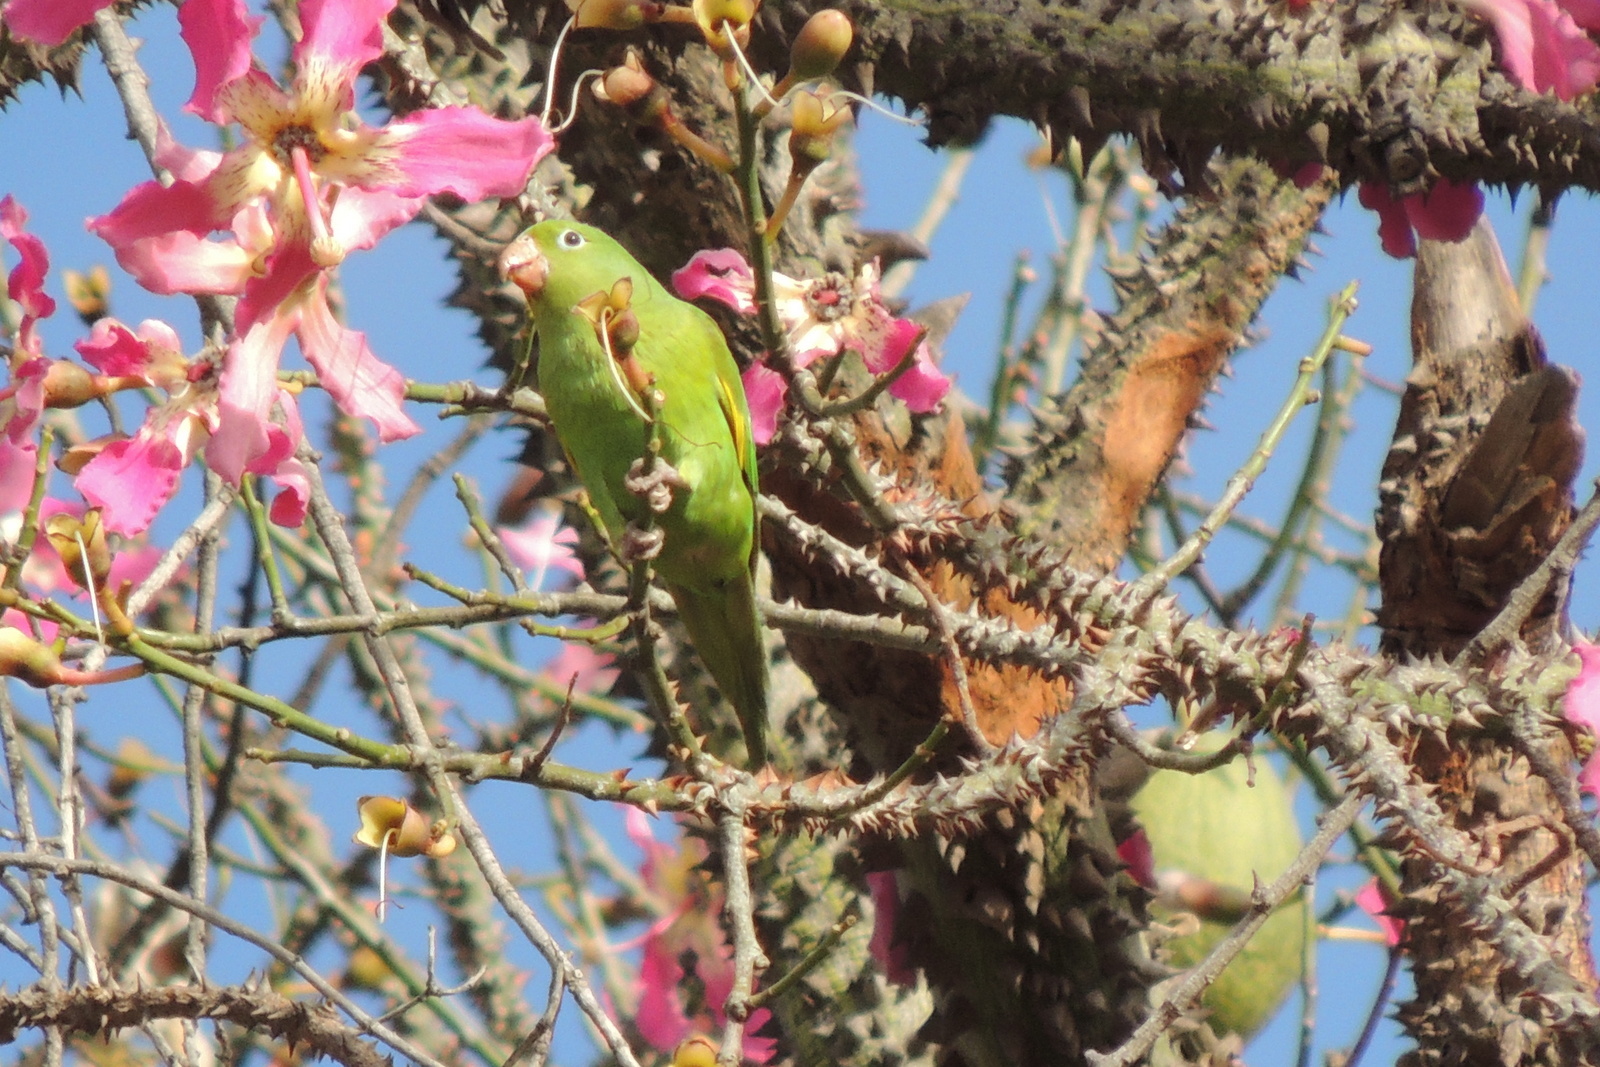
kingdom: Animalia
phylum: Chordata
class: Aves
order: Psittaciformes
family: Psittacidae
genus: Brotogeris
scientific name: Brotogeris chiriri
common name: Yellow-chevroned parakeet
